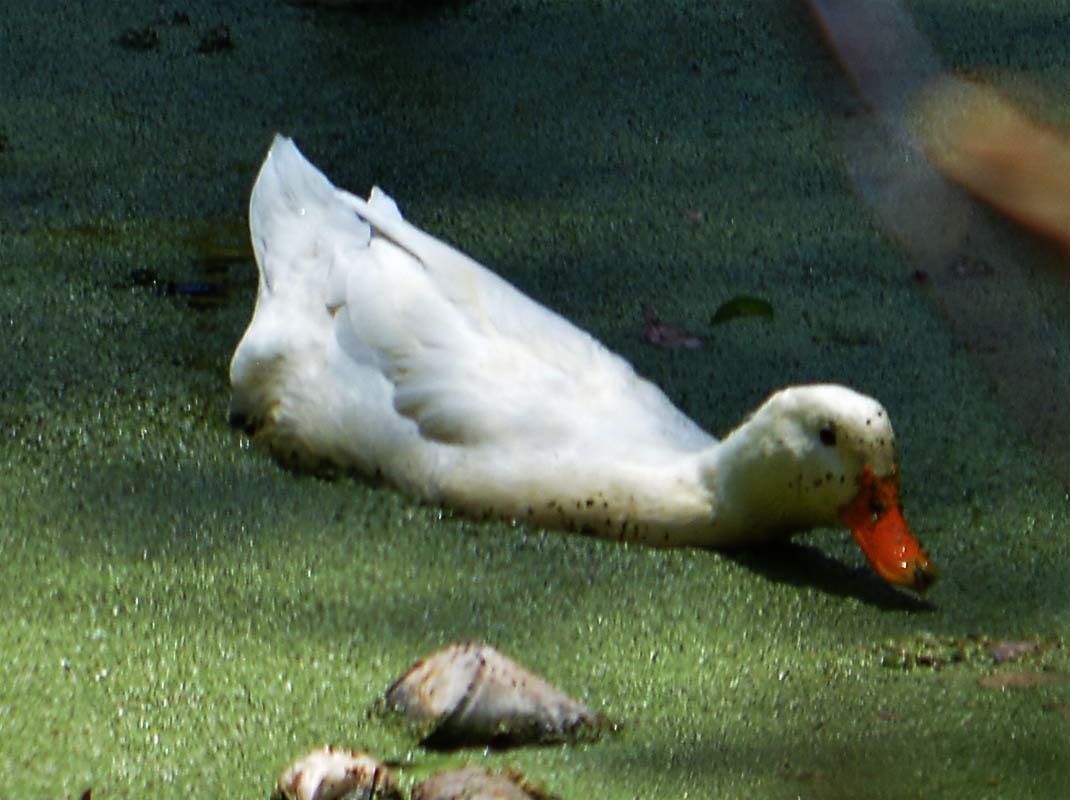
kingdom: Animalia
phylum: Chordata
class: Aves
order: Anseriformes
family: Anatidae
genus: Anas
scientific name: Anas platyrhynchos
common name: Mallard
